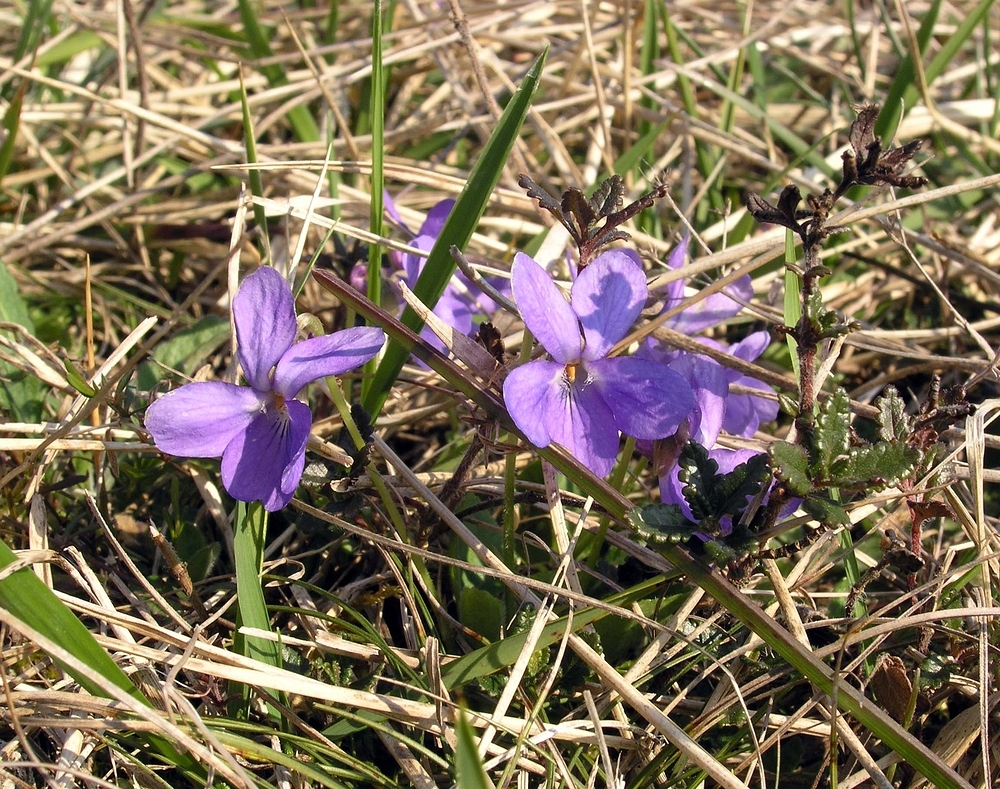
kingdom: Plantae
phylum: Tracheophyta
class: Magnoliopsida
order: Malpighiales
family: Violaceae
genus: Viola
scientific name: Viola hirta
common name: Hairy violet
